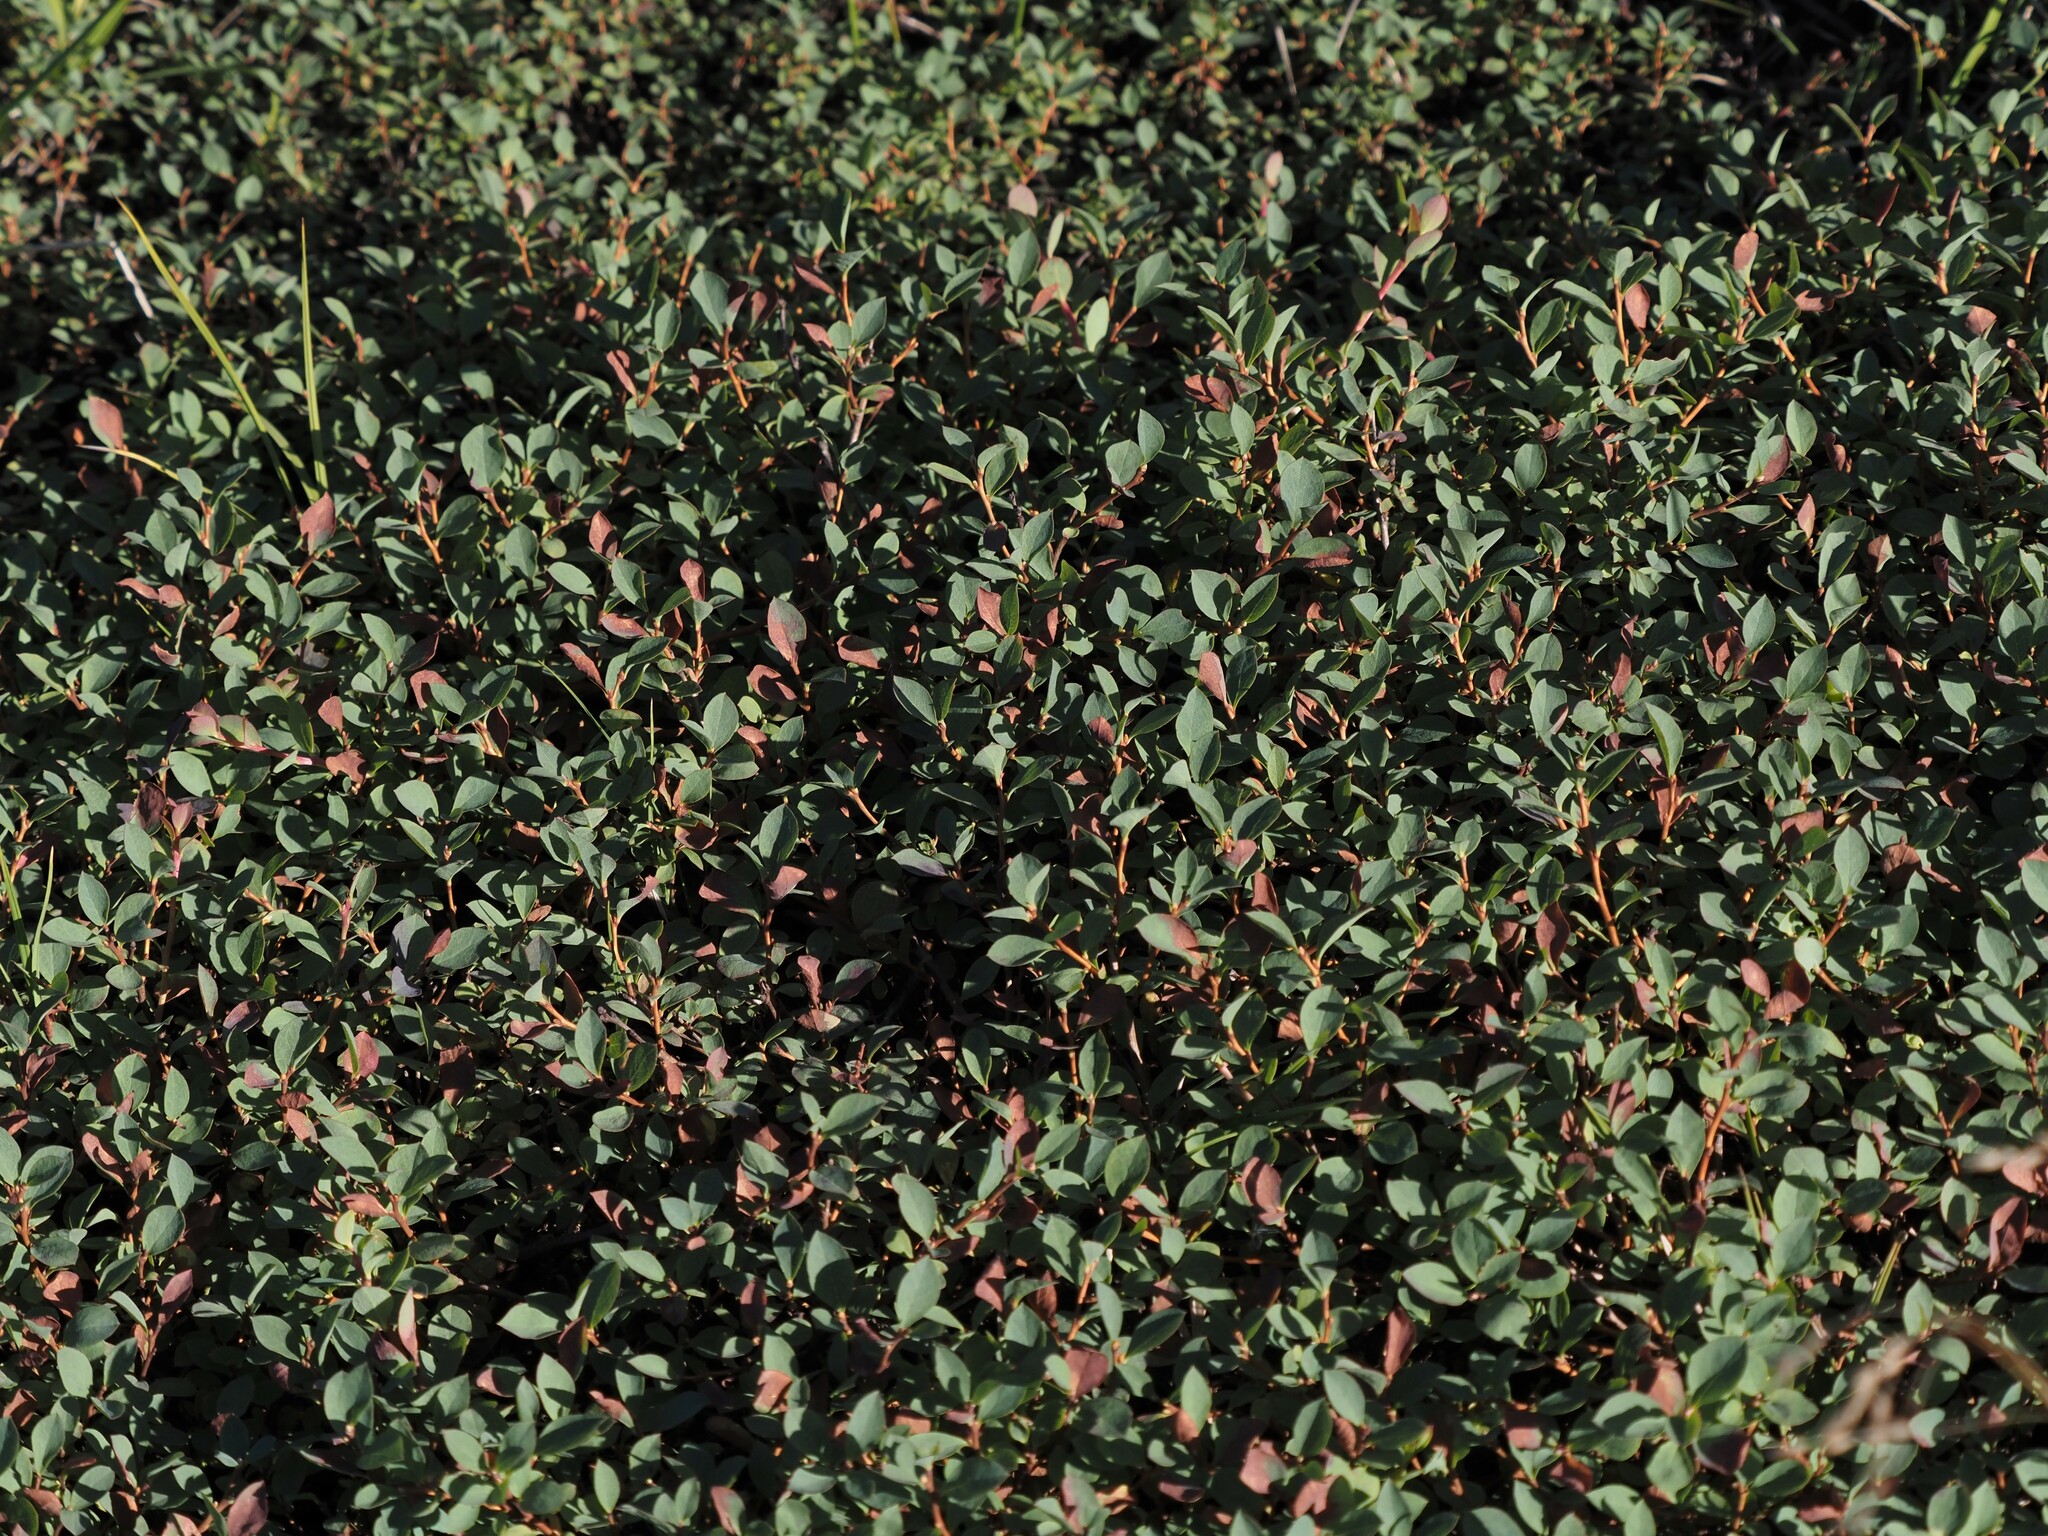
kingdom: Plantae
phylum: Tracheophyta
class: Magnoliopsida
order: Ericales
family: Ericaceae
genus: Vaccinium
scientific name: Vaccinium uliginosum
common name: Bog bilberry
